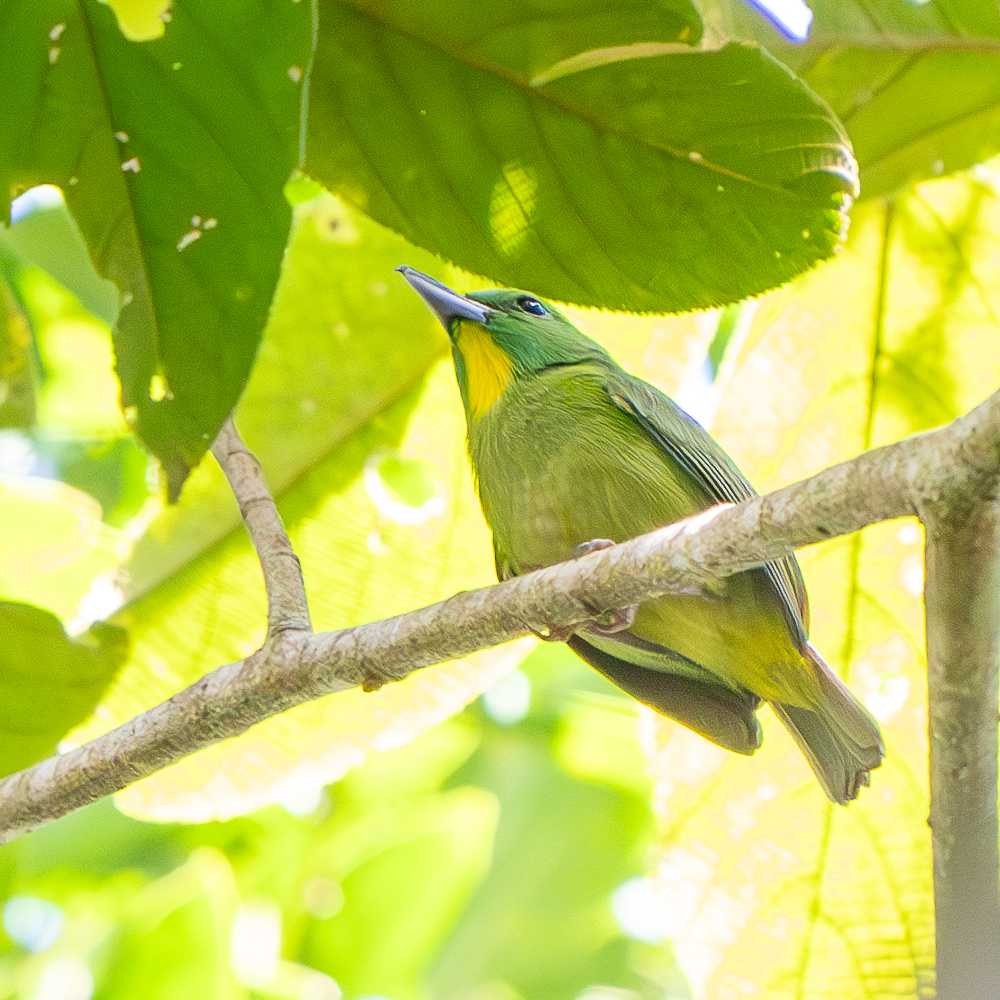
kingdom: Animalia
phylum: Chordata
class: Aves
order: Passeriformes
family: Vireonidae
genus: Vireolanius
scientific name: Vireolanius pulchellus
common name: Green shrike-vireo
